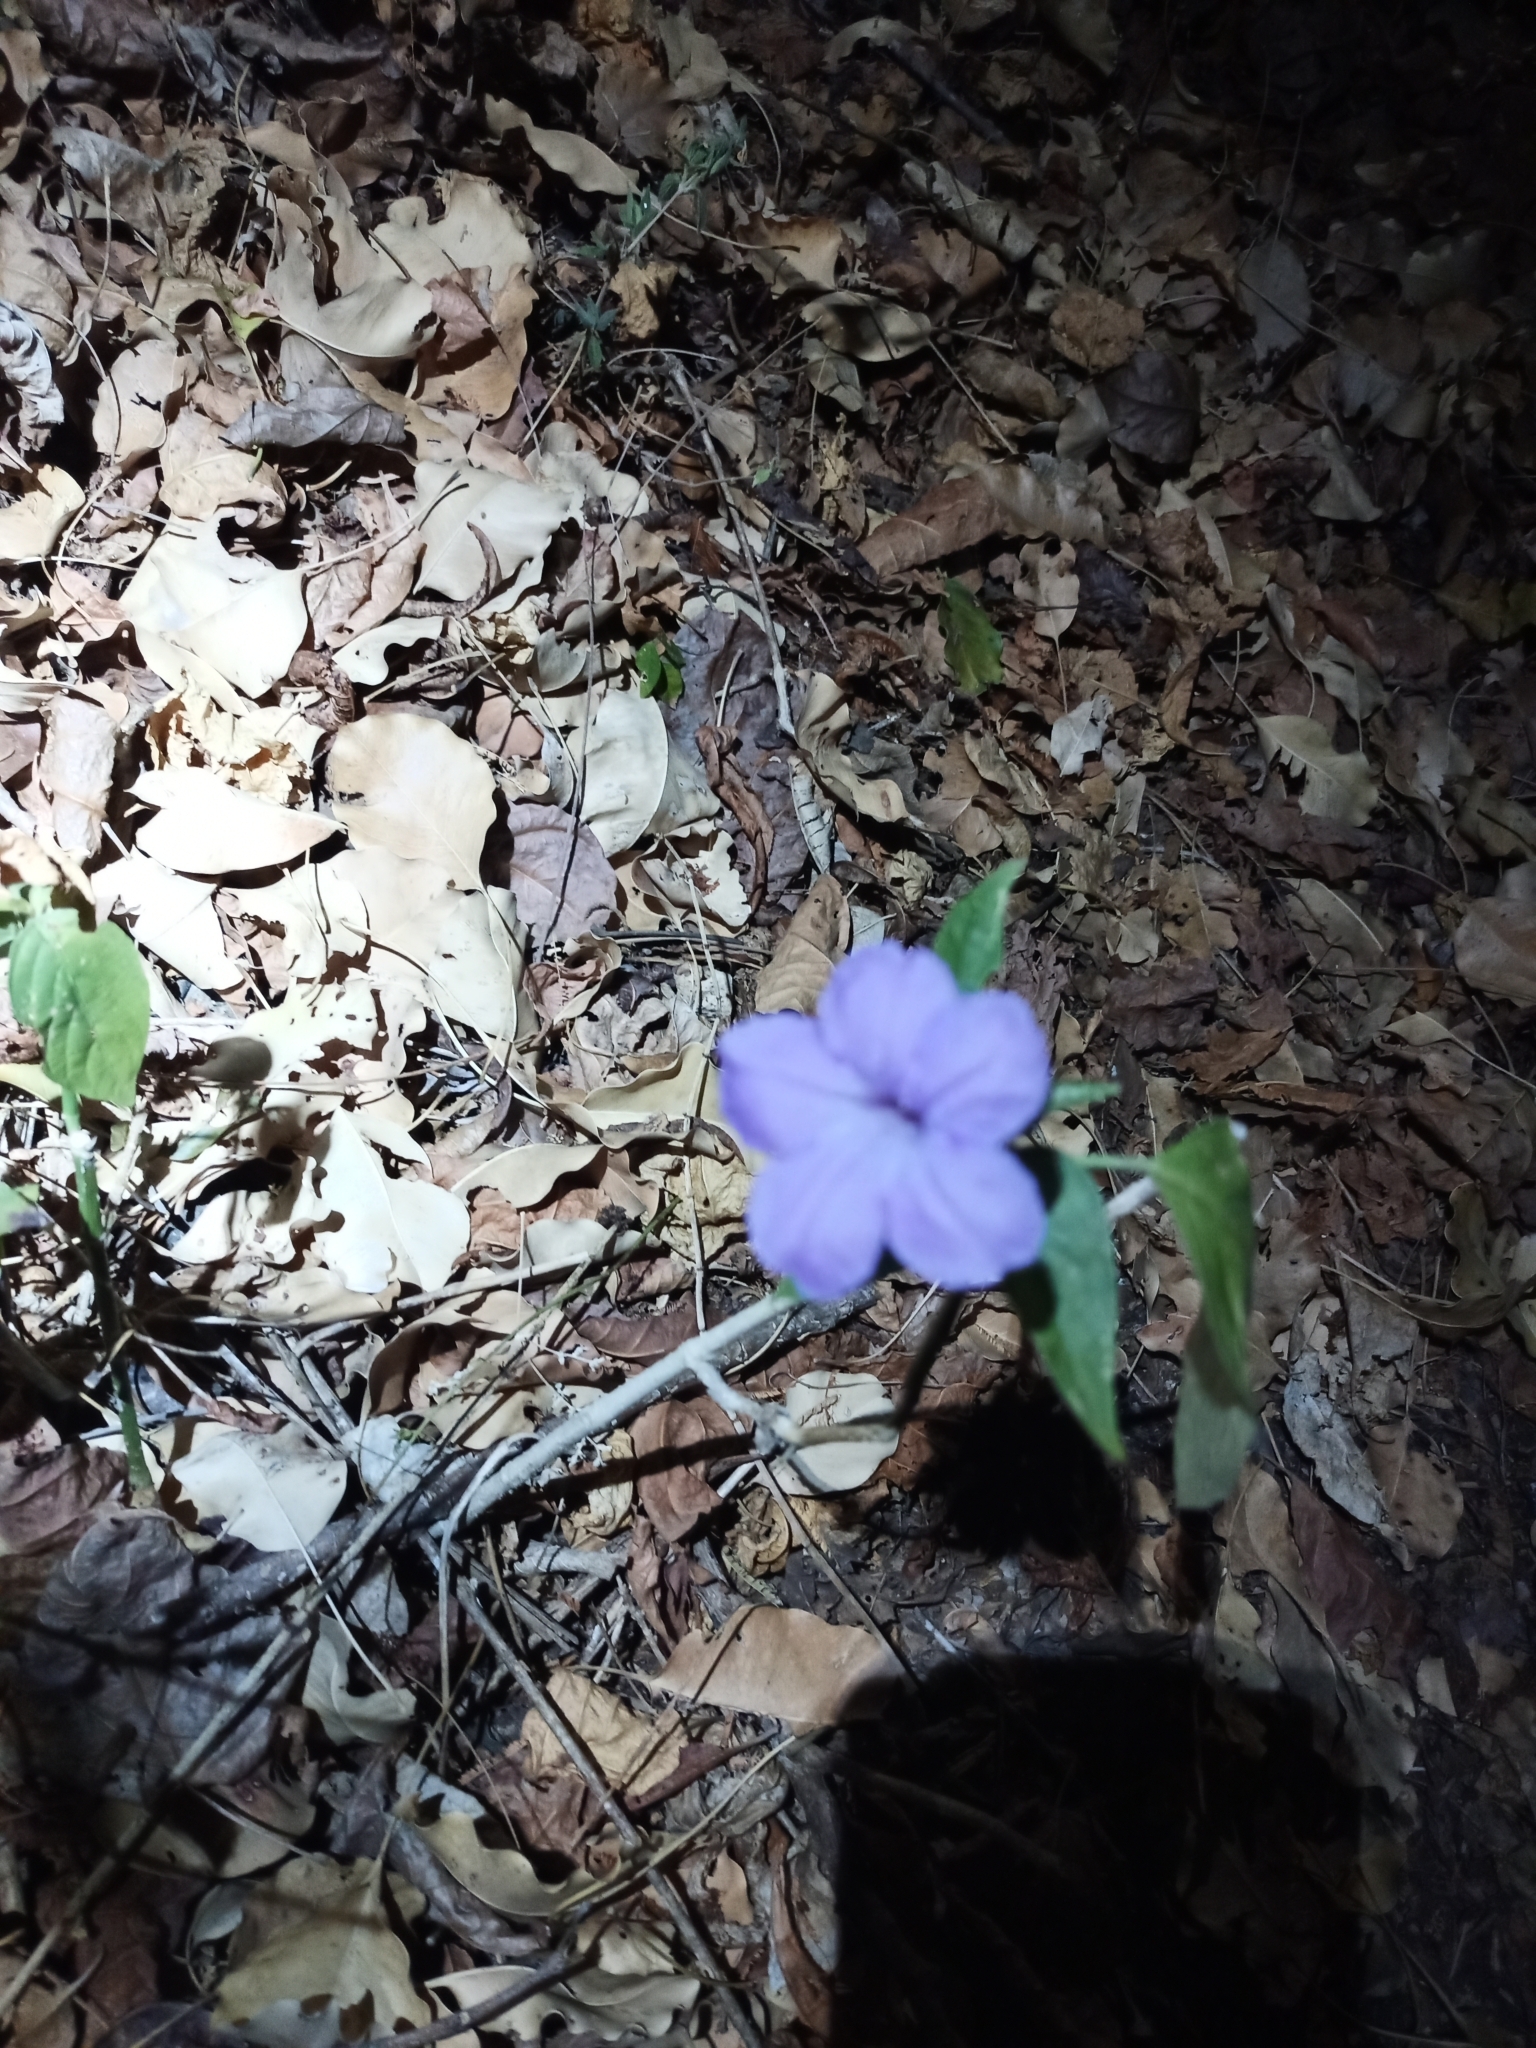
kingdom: Plantae
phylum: Tracheophyta
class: Magnoliopsida
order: Lamiales
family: Acanthaceae
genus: Ruellia
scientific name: Ruellia breedlovei
